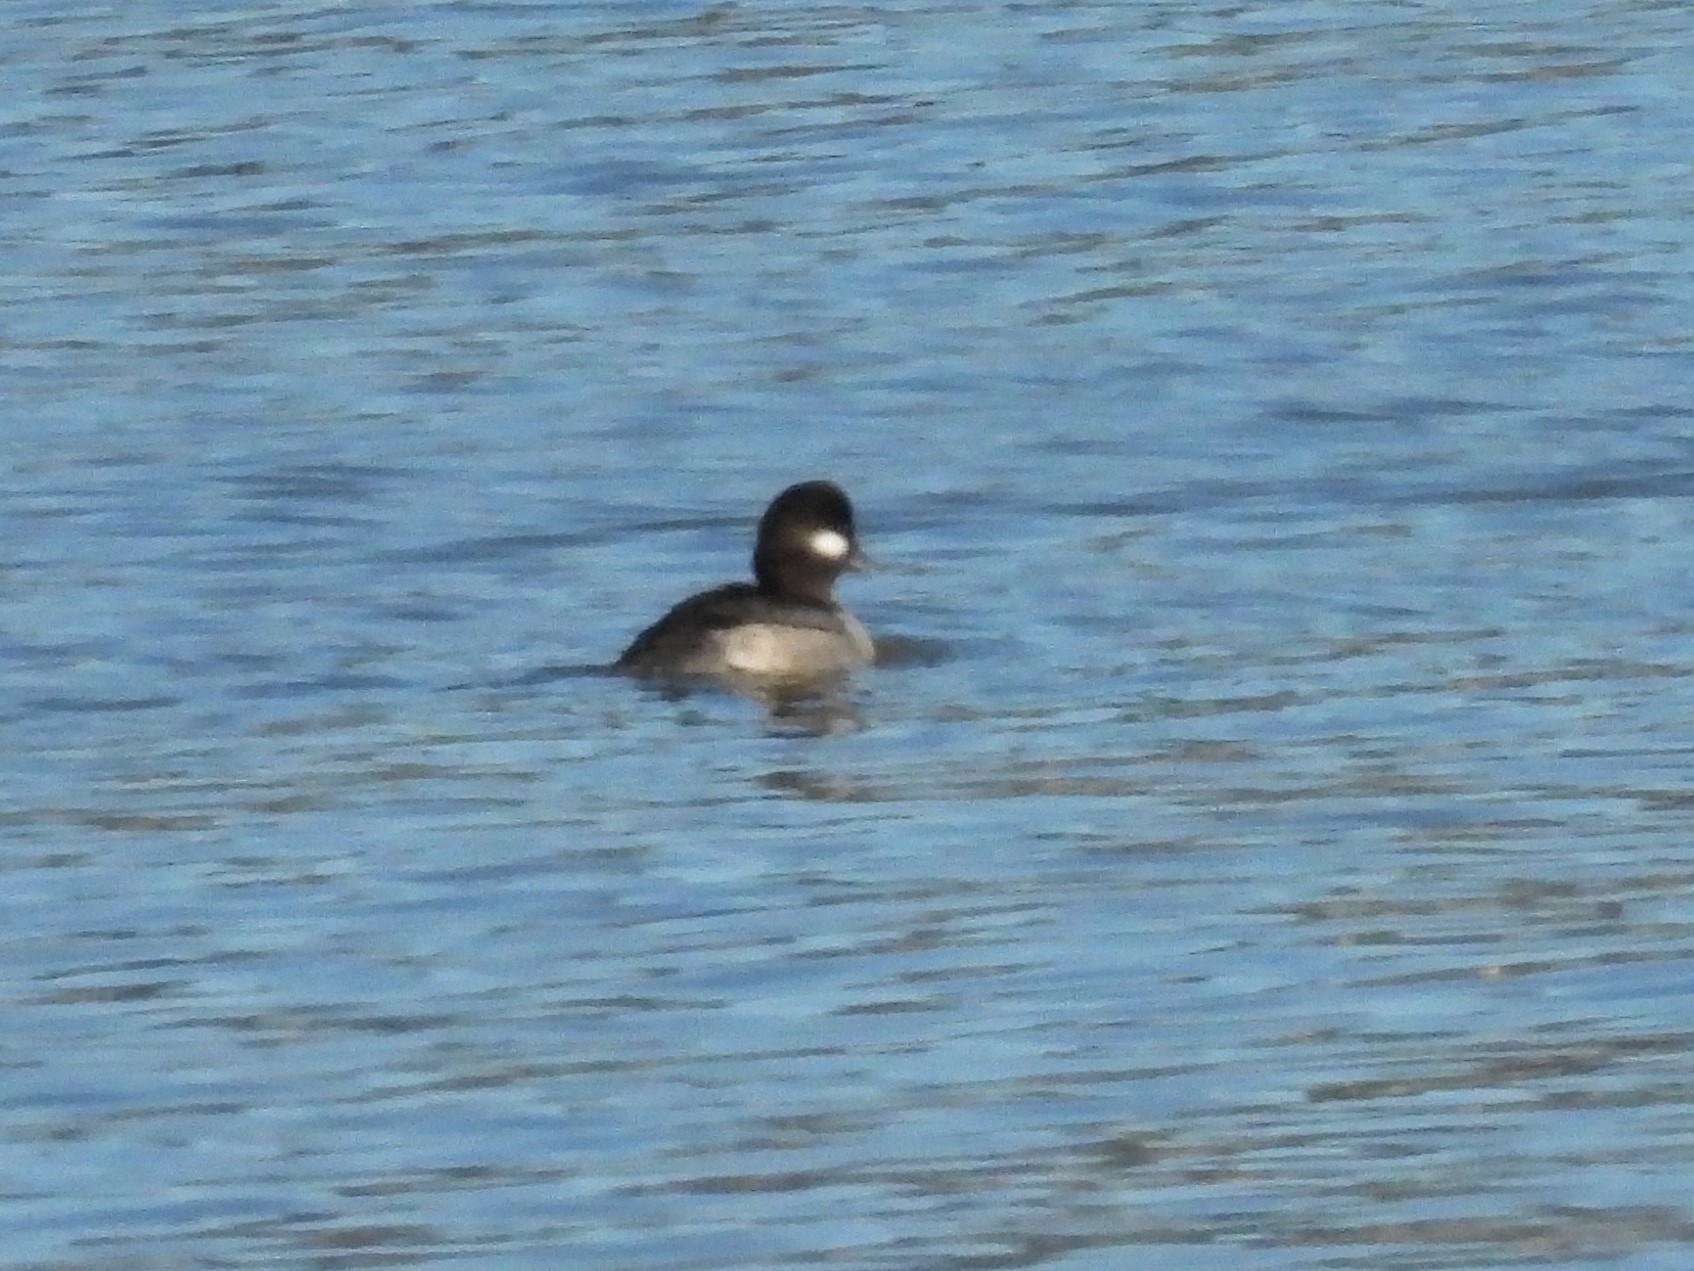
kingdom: Animalia
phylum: Chordata
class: Aves
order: Anseriformes
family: Anatidae
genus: Bucephala
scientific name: Bucephala albeola
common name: Bufflehead
